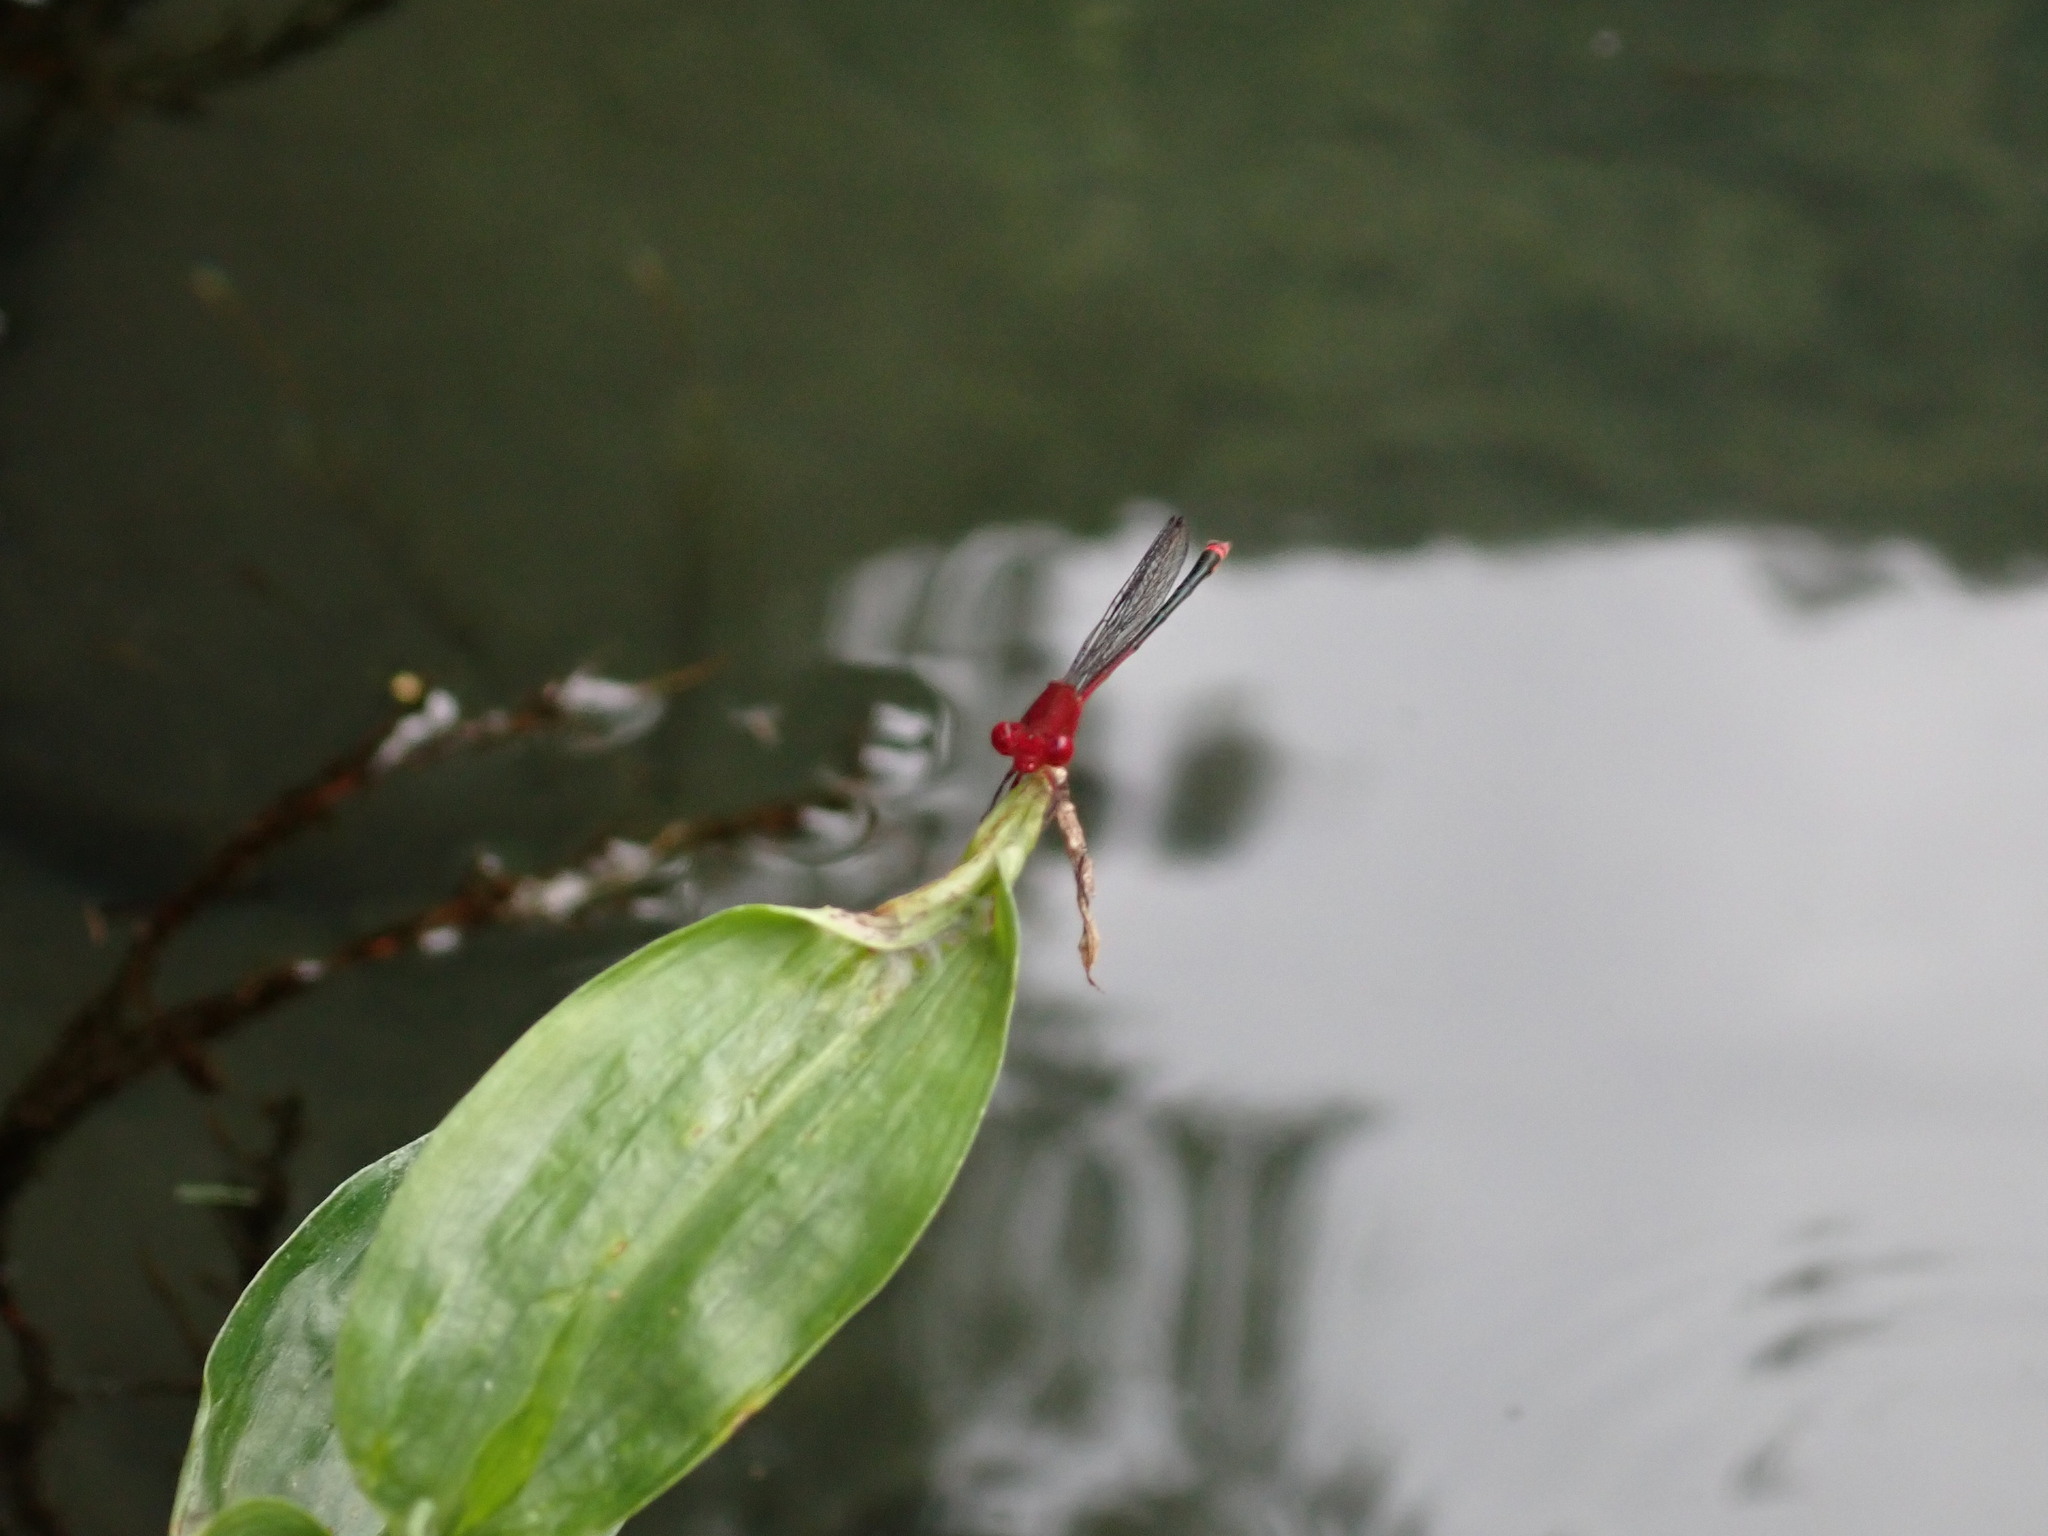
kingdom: Animalia
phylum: Arthropoda
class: Insecta
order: Odonata
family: Coenagrionidae
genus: Pseudagrion
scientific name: Pseudagrion pilidorsum
